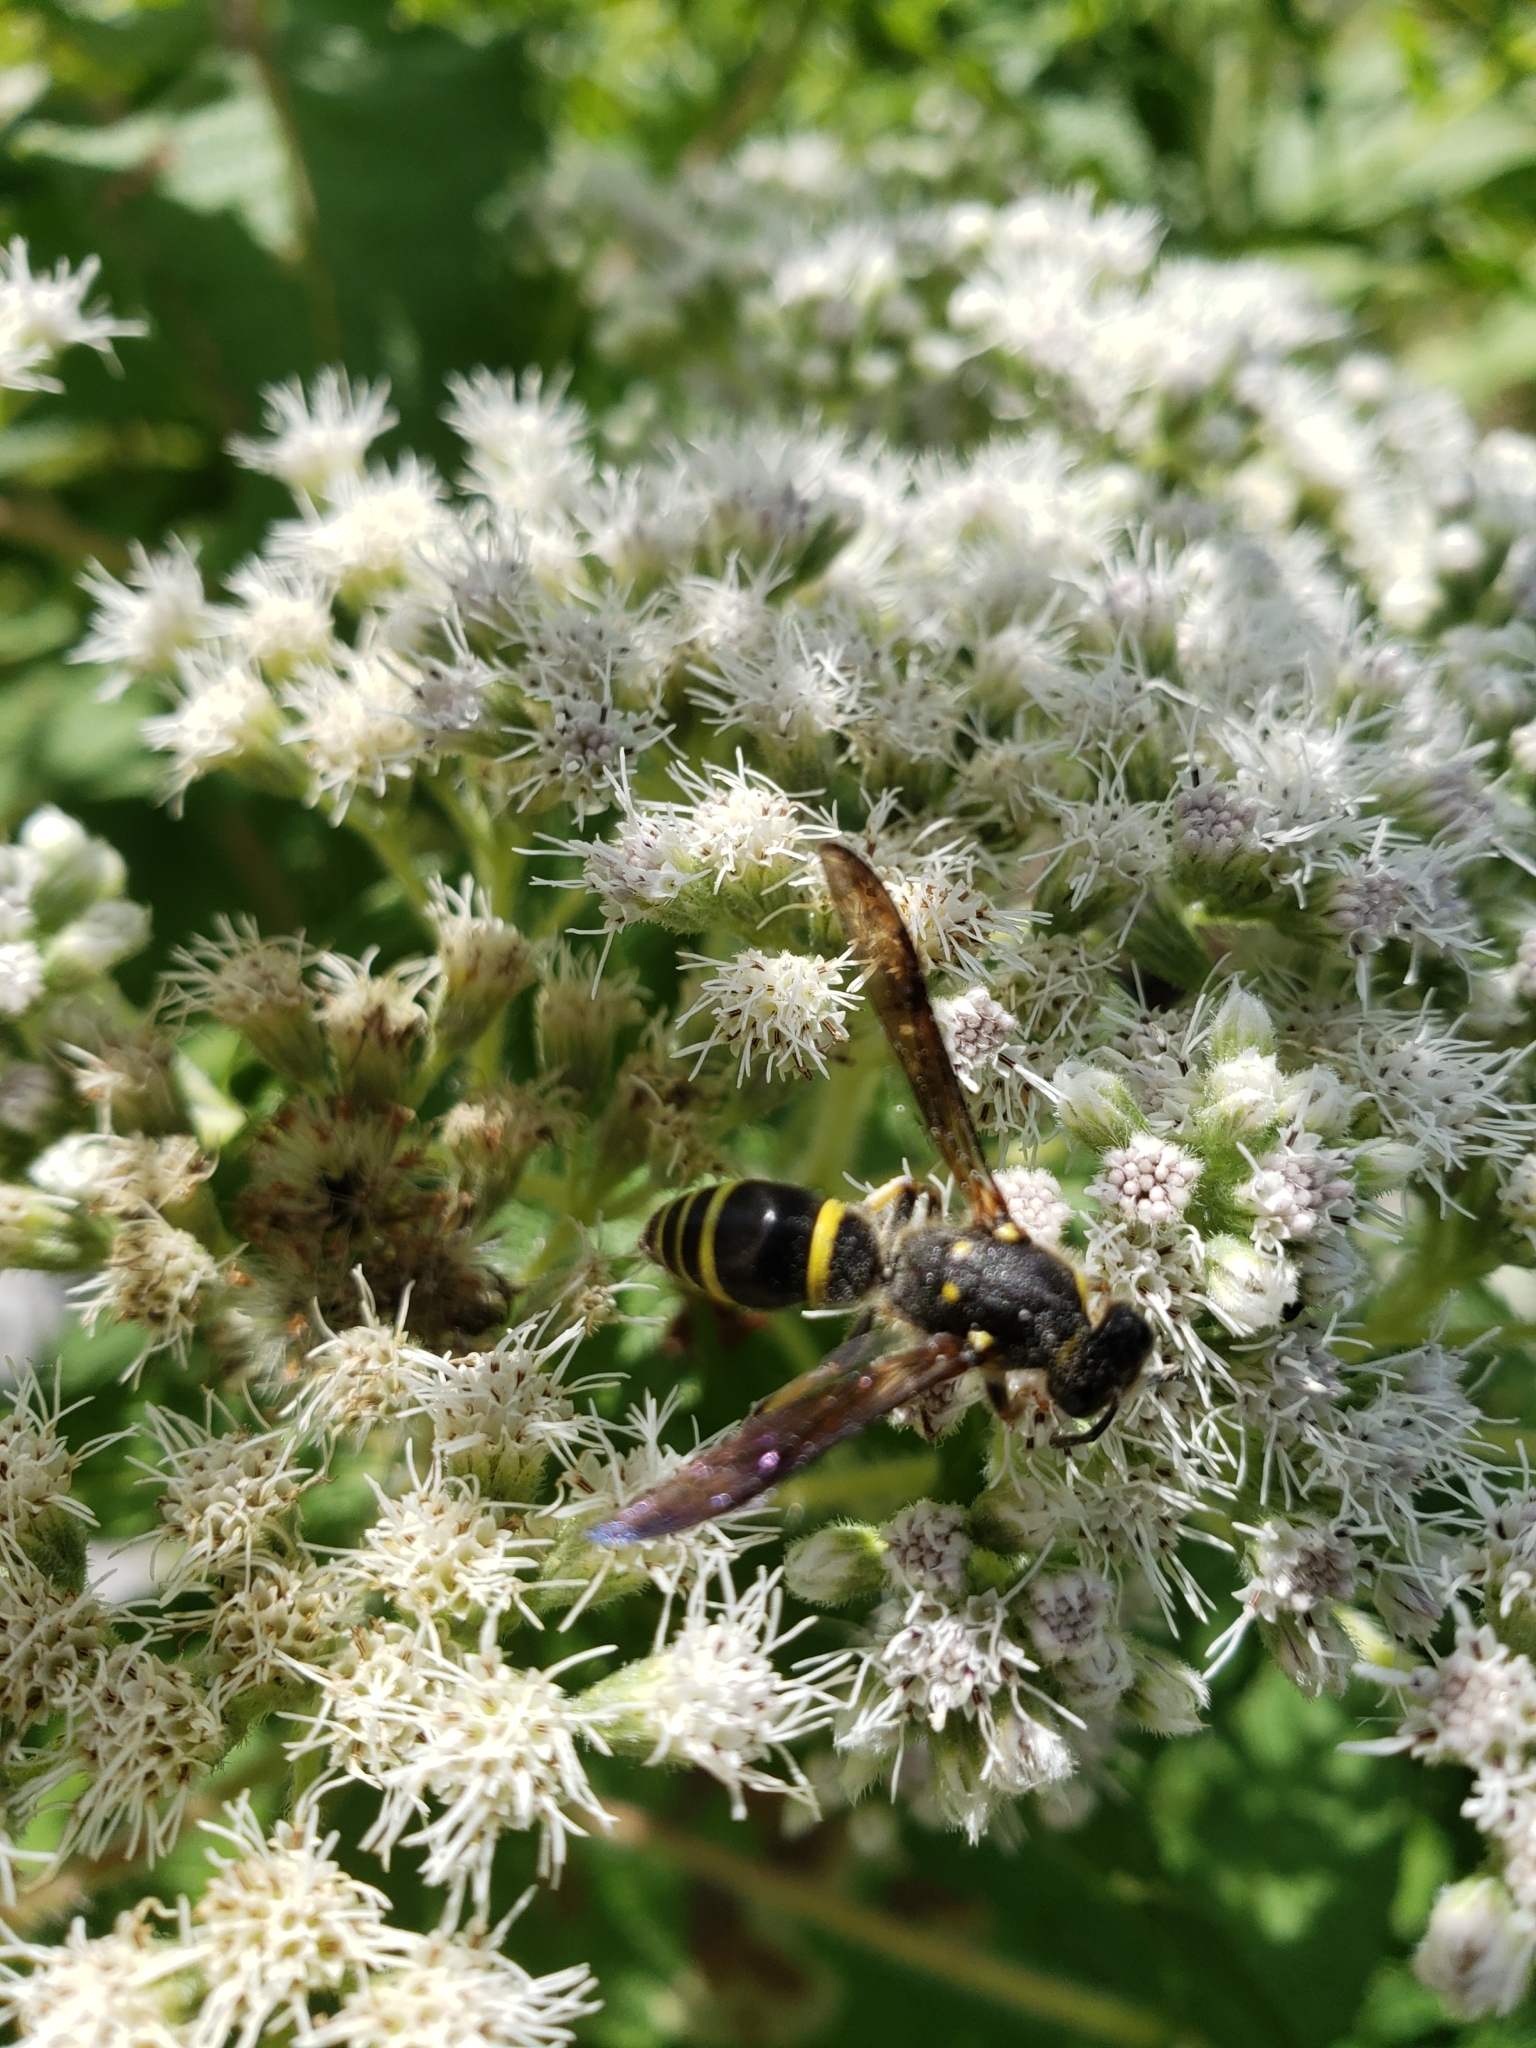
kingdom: Animalia
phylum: Arthropoda
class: Insecta
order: Hymenoptera
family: Vespidae
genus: Ancistrocerus
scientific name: Ancistrocerus
